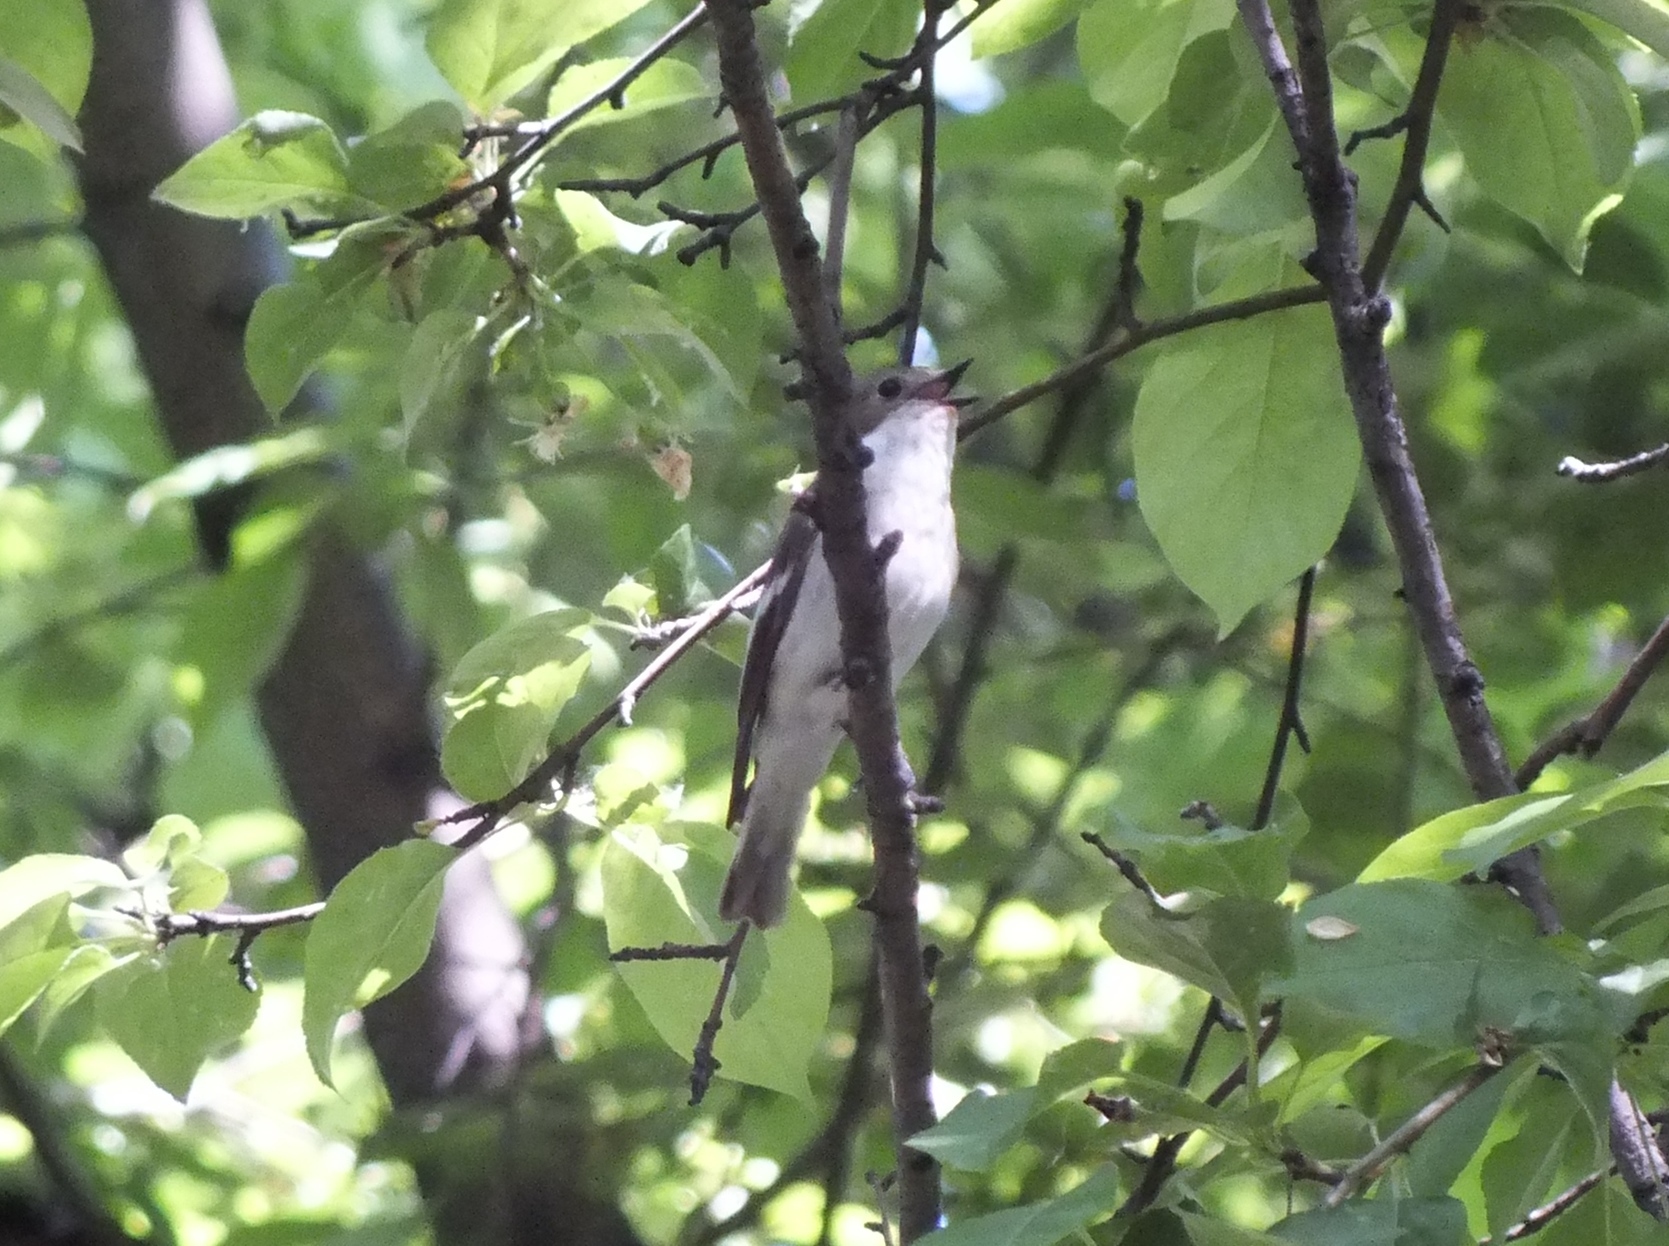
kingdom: Animalia
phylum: Chordata
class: Aves
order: Passeriformes
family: Muscicapidae
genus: Ficedula
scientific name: Ficedula hypoleuca
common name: European pied flycatcher
